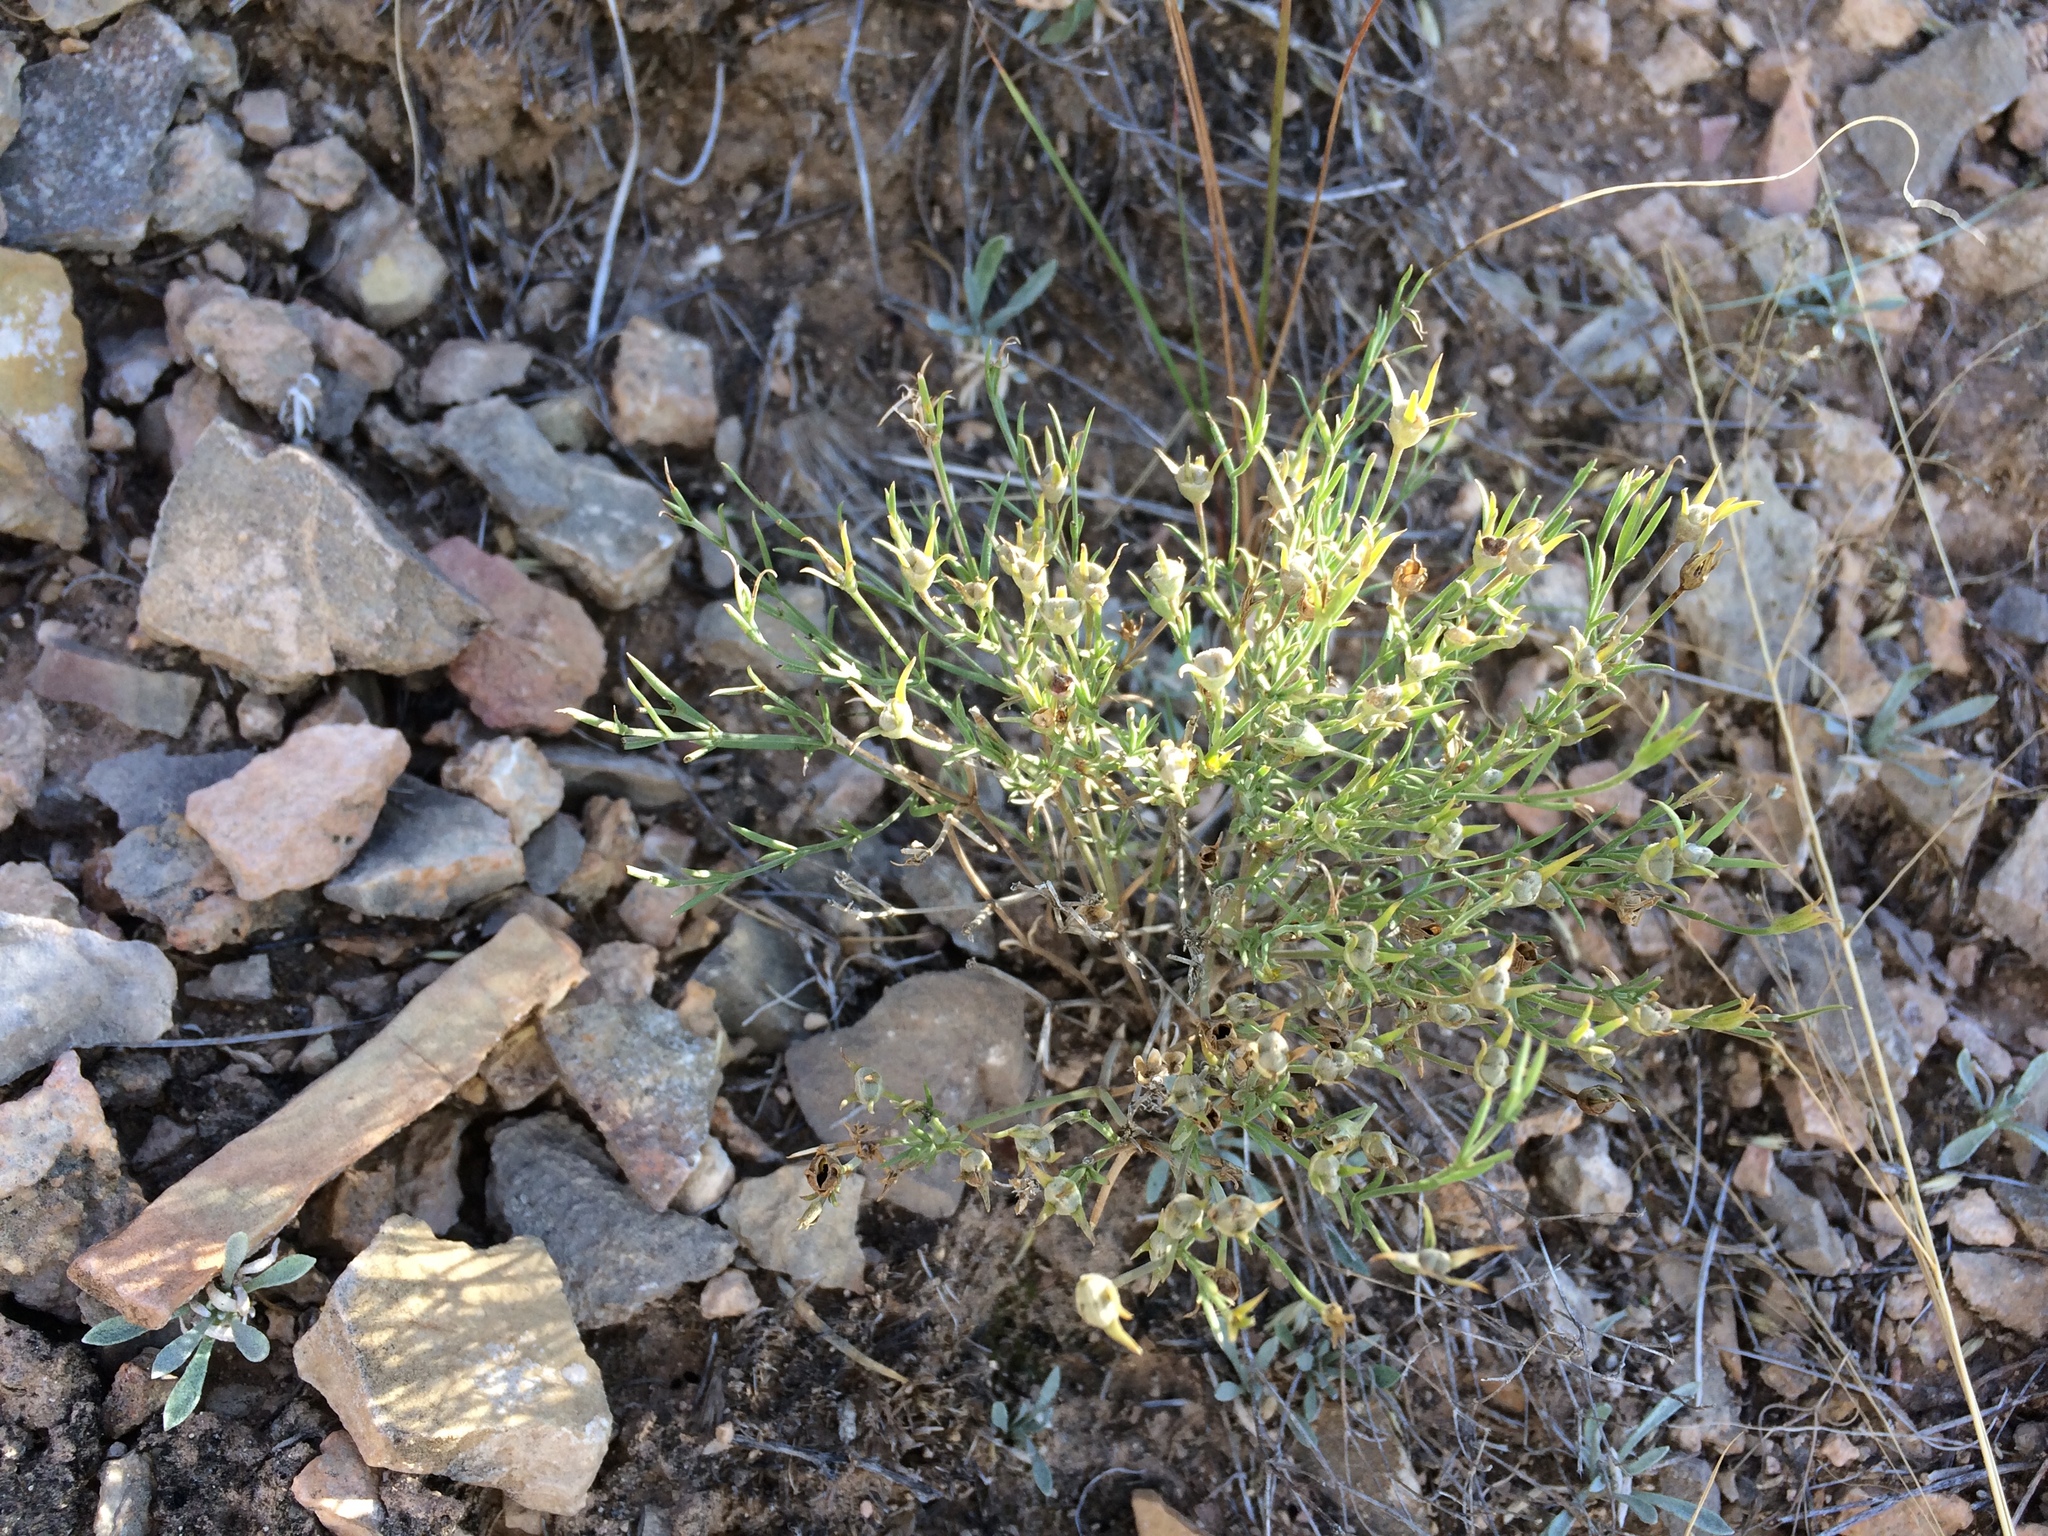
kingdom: Plantae
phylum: Tracheophyta
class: Magnoliopsida
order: Gentianales
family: Rubiaceae
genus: Houstonia
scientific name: Houstonia acerosa
